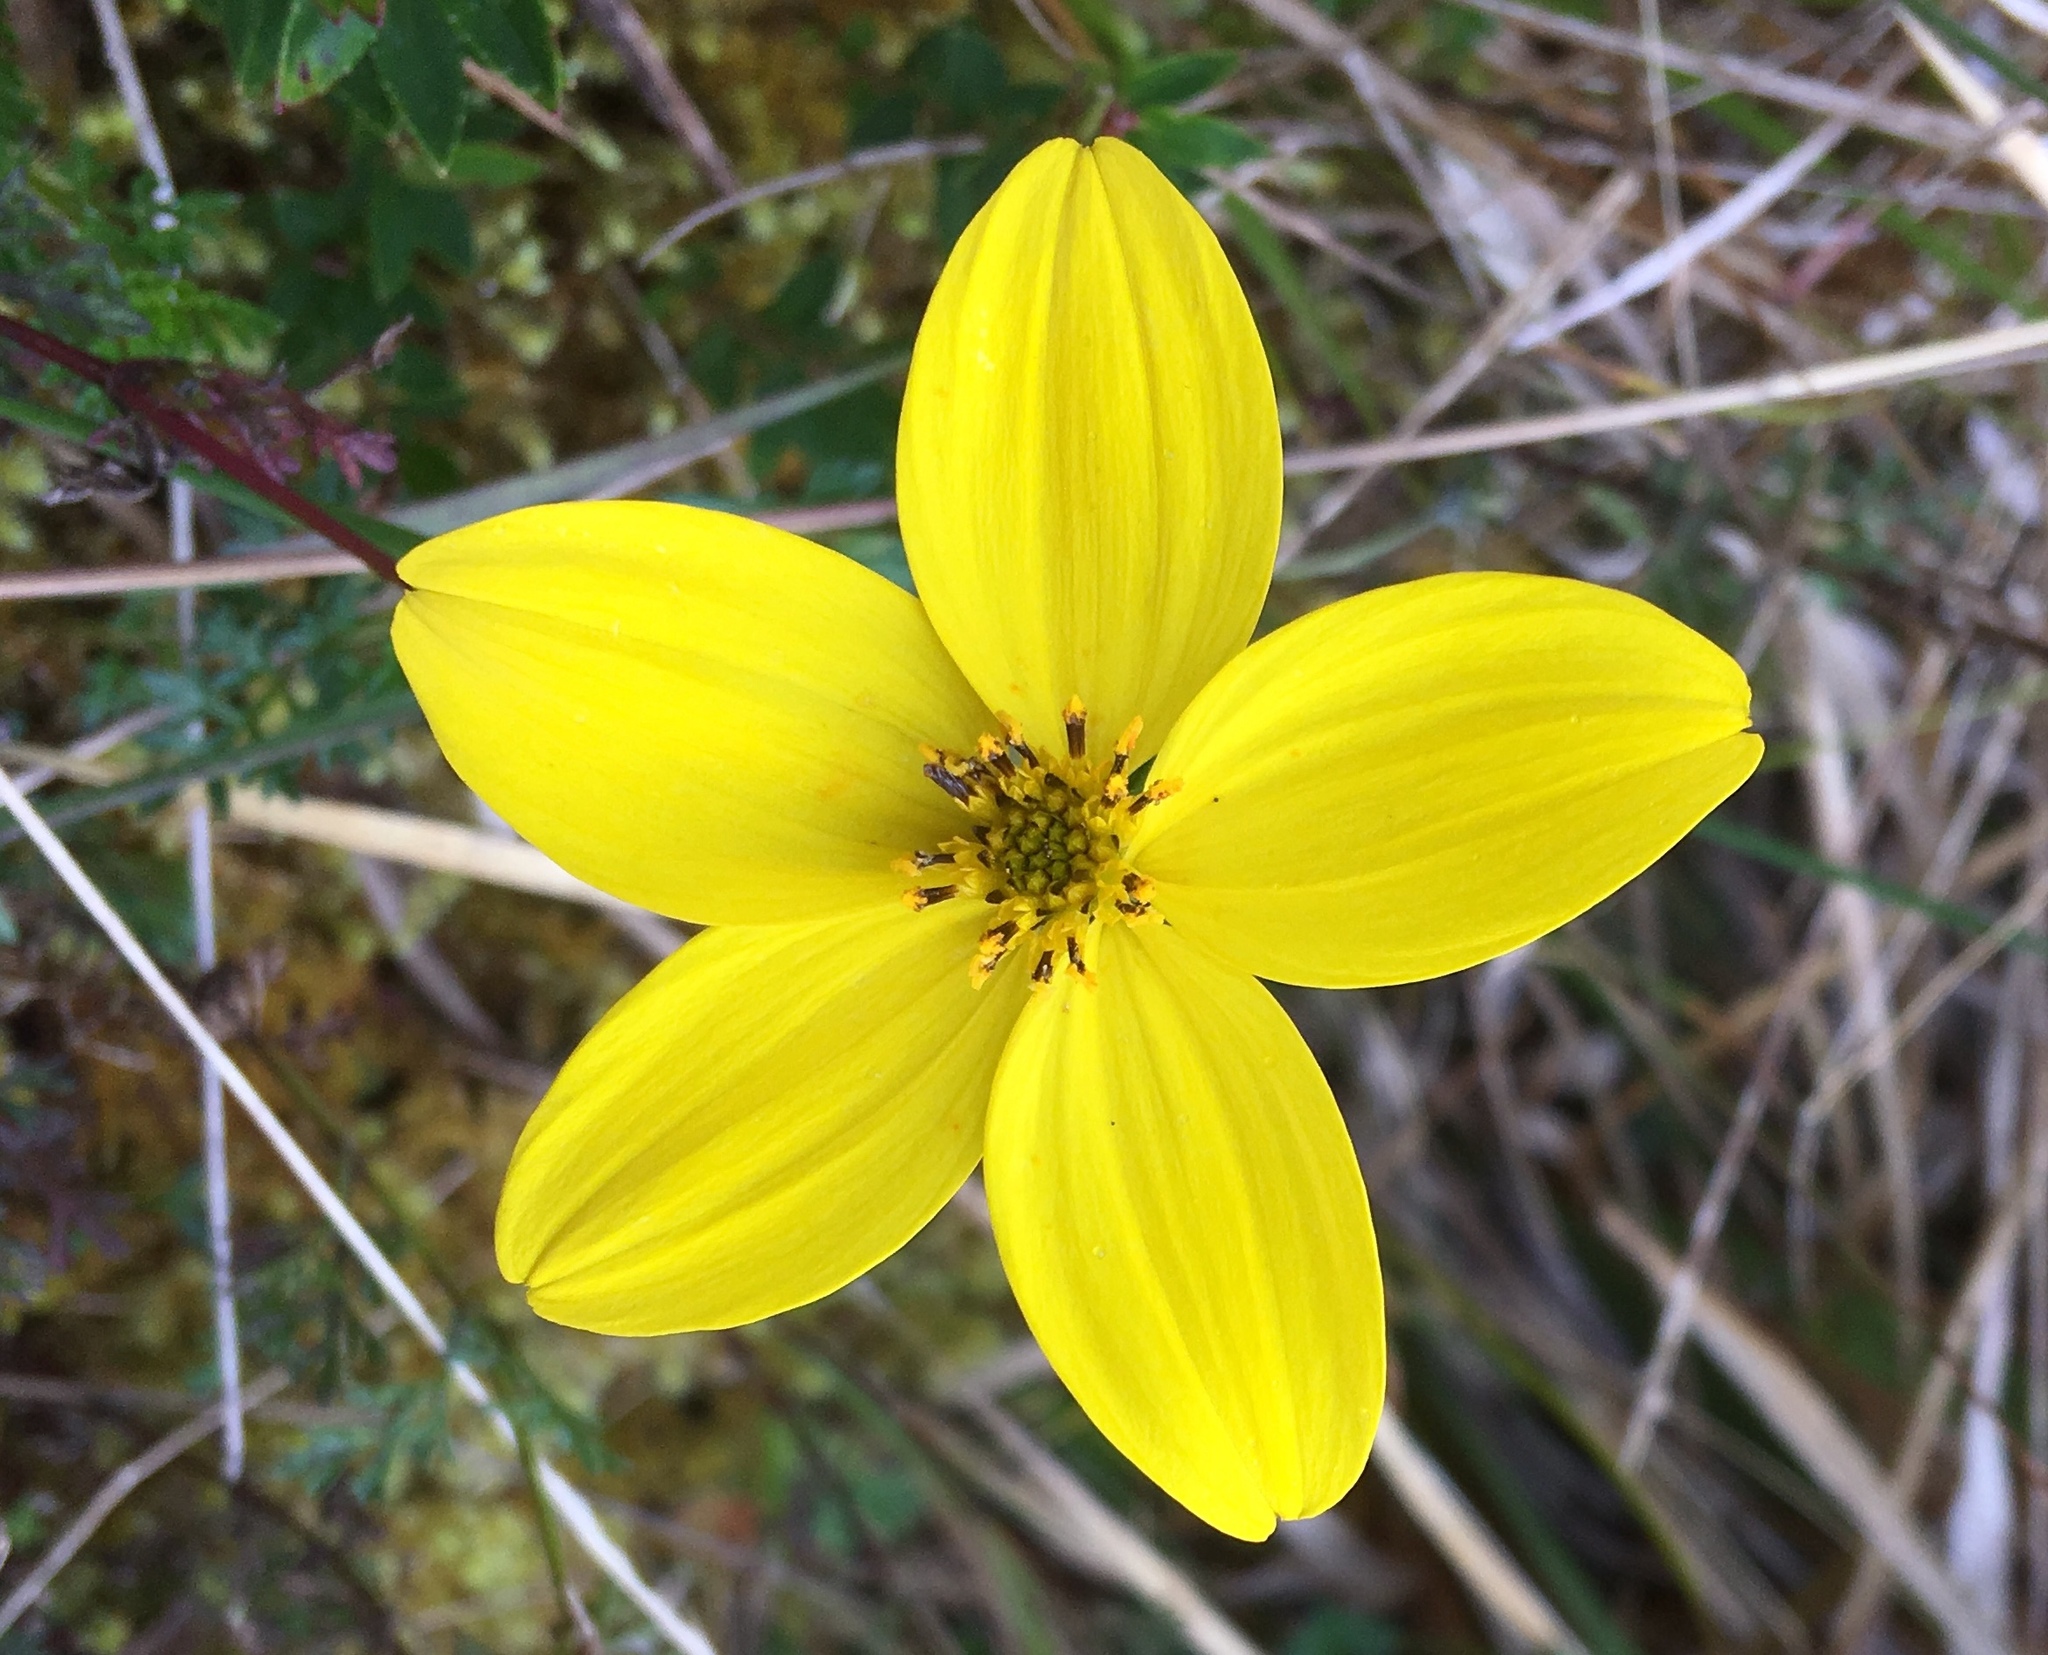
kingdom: Plantae
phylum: Tracheophyta
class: Magnoliopsida
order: Asterales
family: Asteraceae
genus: Bidens
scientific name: Bidens andicola
